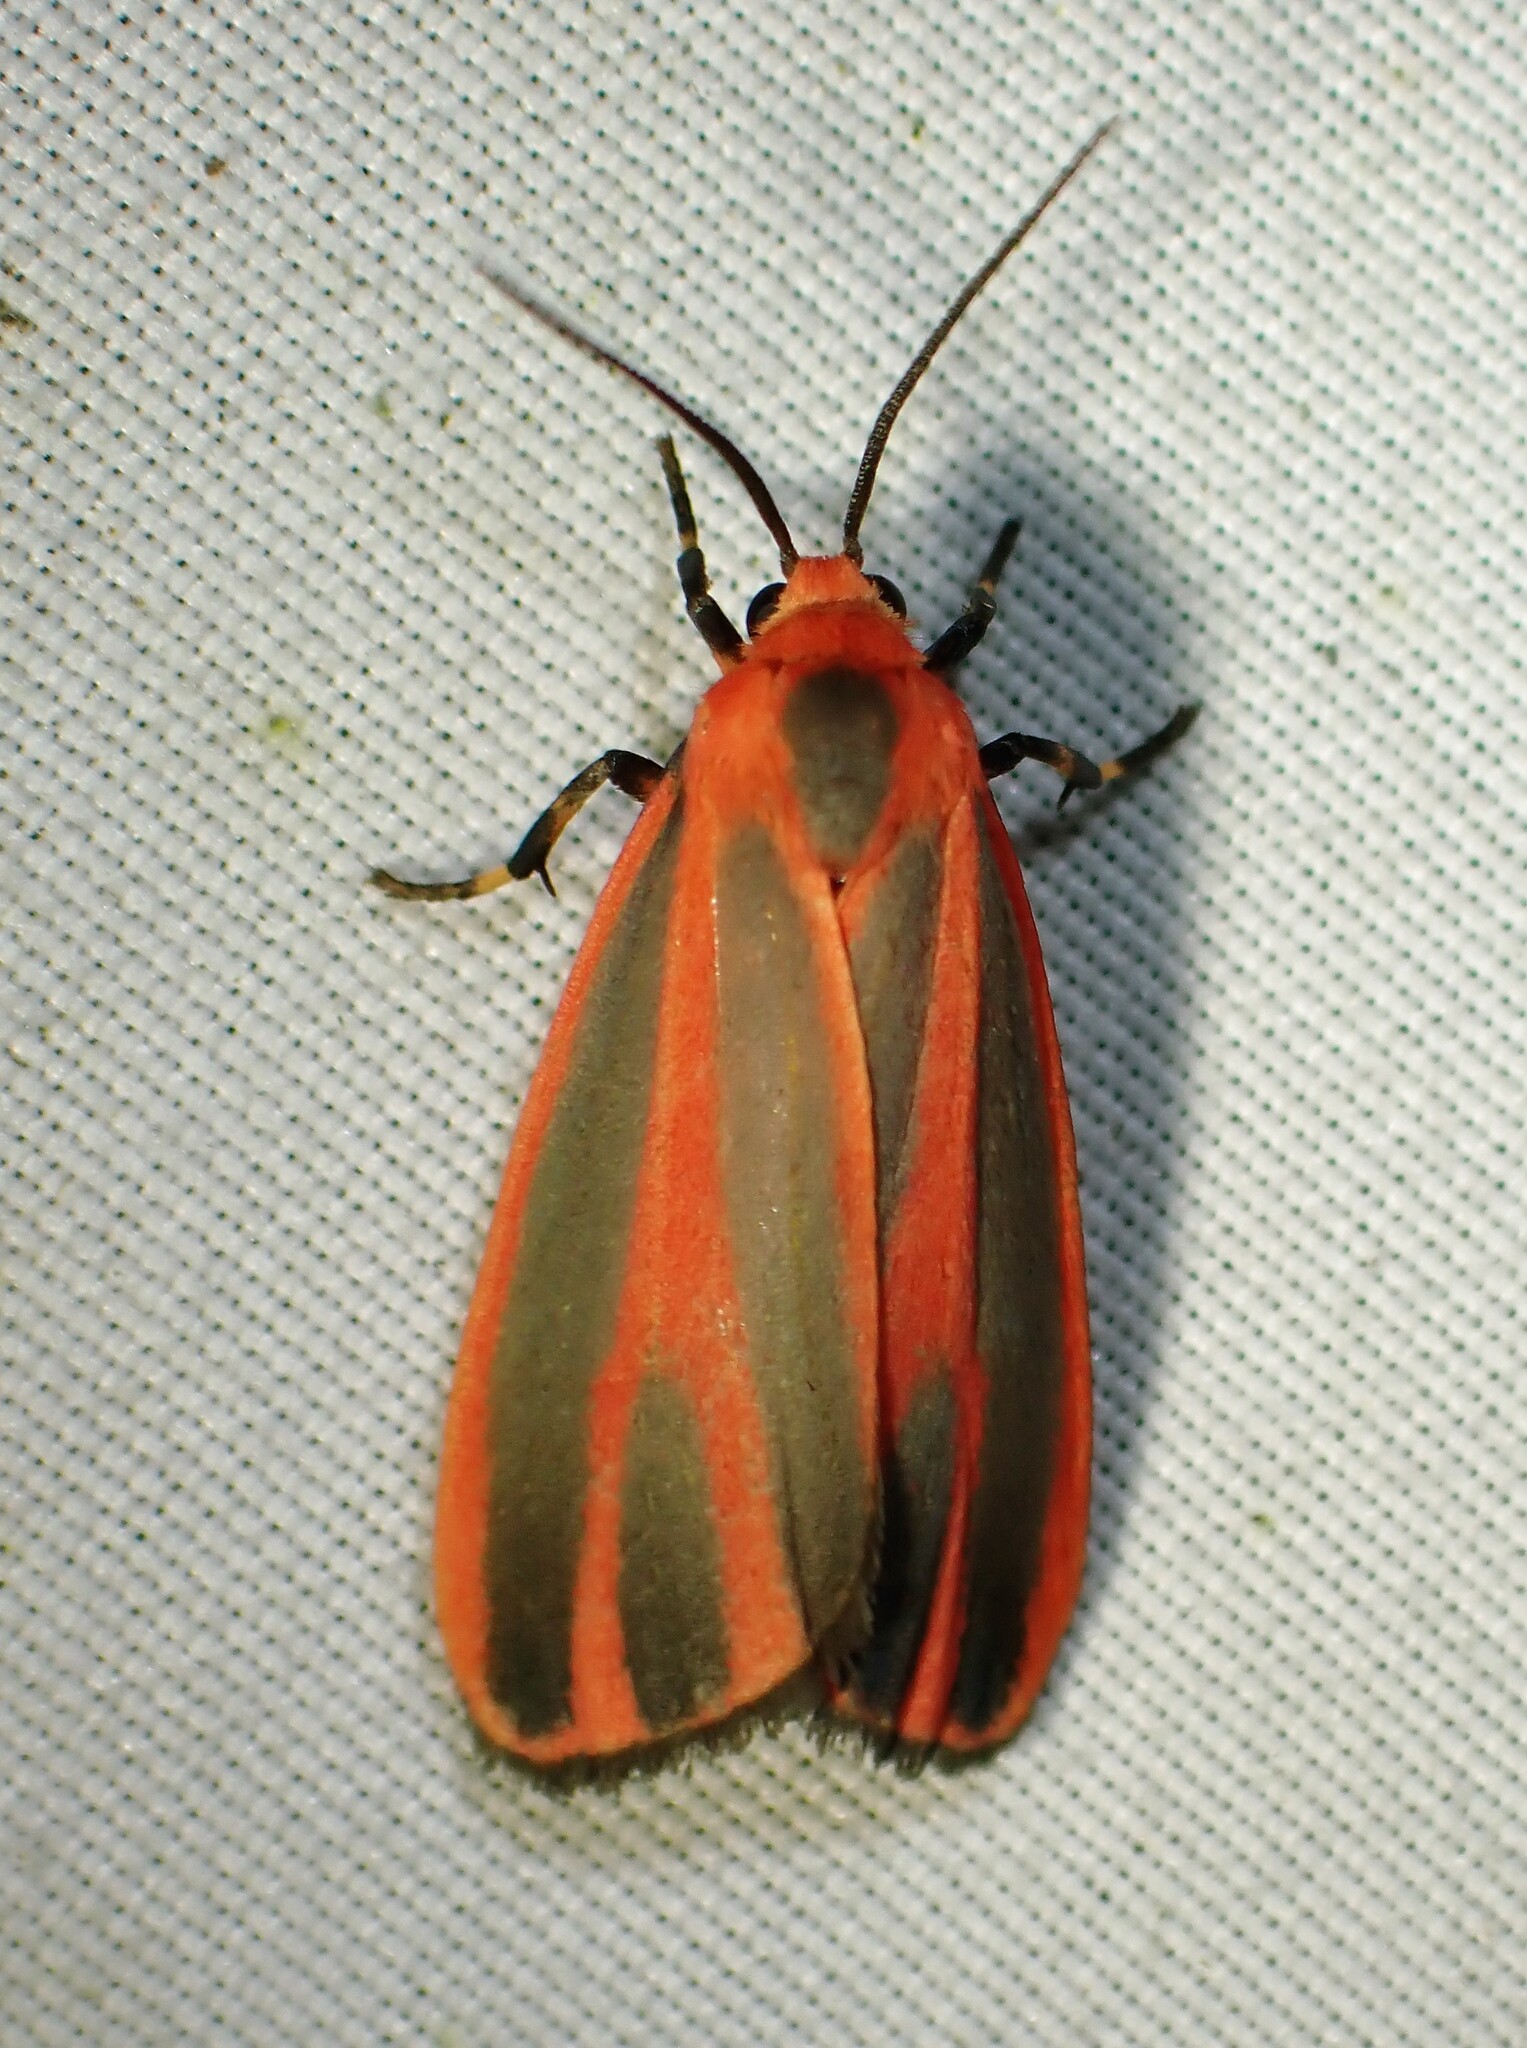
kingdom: Animalia
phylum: Arthropoda
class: Insecta
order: Lepidoptera
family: Erebidae
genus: Hypoprepia
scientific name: Hypoprepia miniata
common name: Scarlet-winged lichen moth
